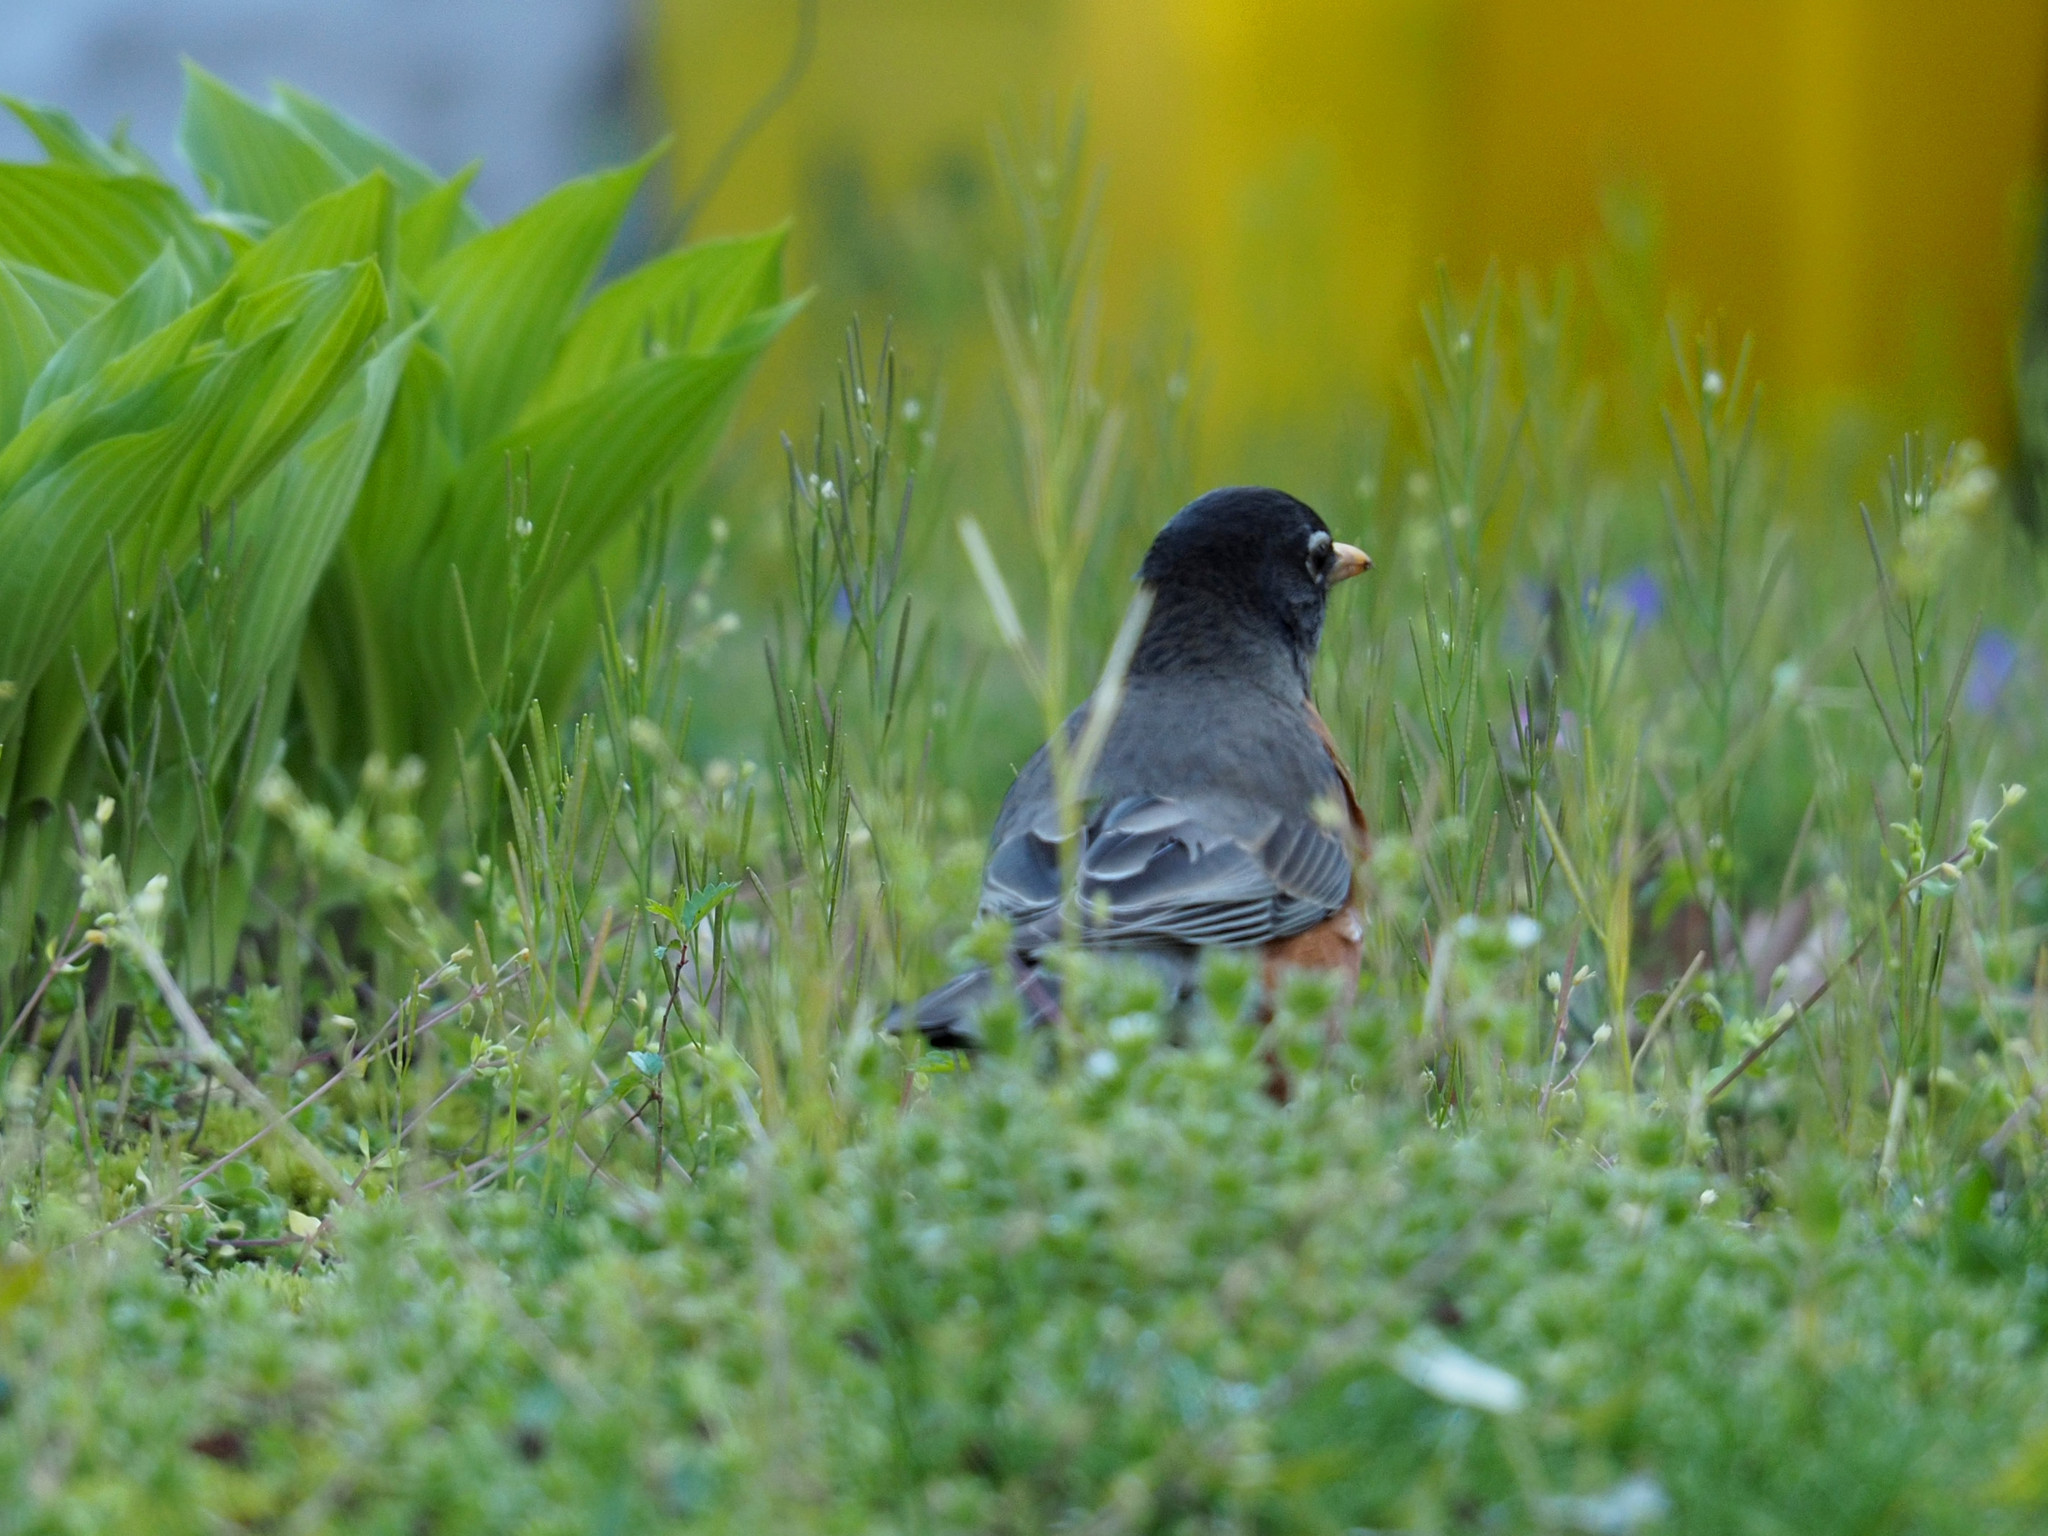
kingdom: Animalia
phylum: Chordata
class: Aves
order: Passeriformes
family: Turdidae
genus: Turdus
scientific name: Turdus migratorius
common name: American robin
